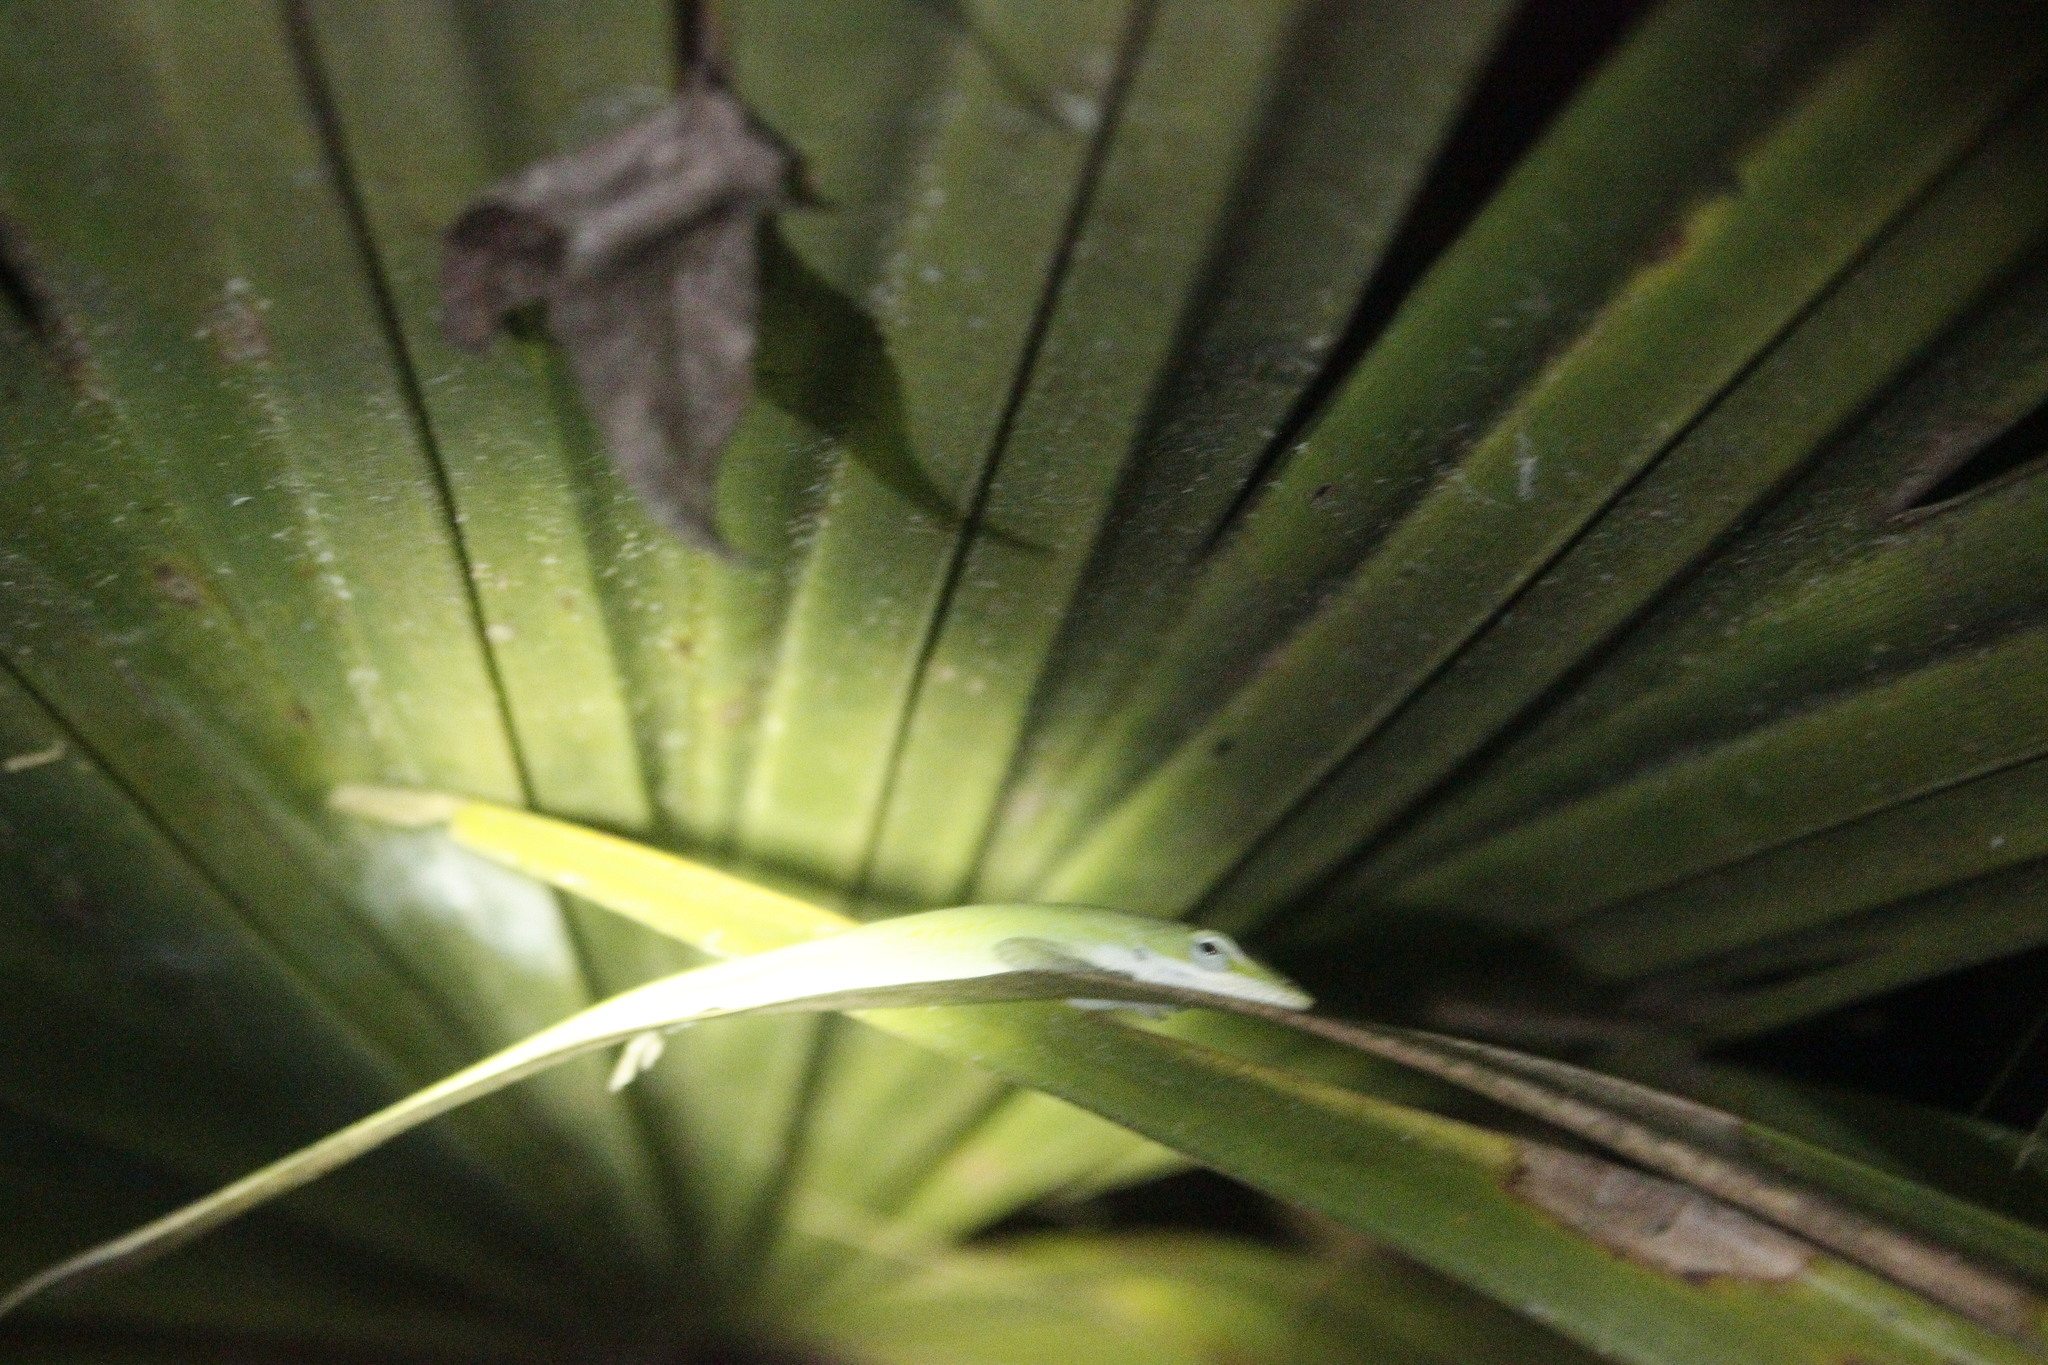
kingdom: Animalia
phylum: Chordata
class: Squamata
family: Dactyloidae
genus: Anolis
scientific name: Anolis carolinensis
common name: Green anole
